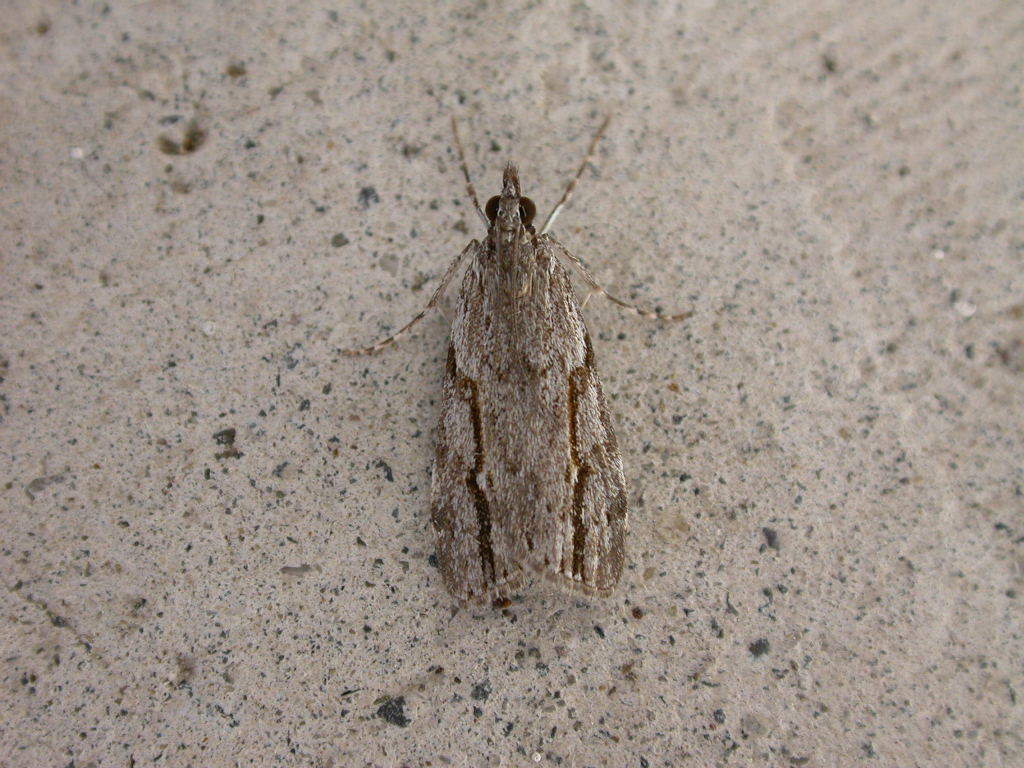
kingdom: Animalia
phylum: Arthropoda
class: Insecta
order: Lepidoptera
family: Crambidae
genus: Eudonia
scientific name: Eudonia bisinualis
